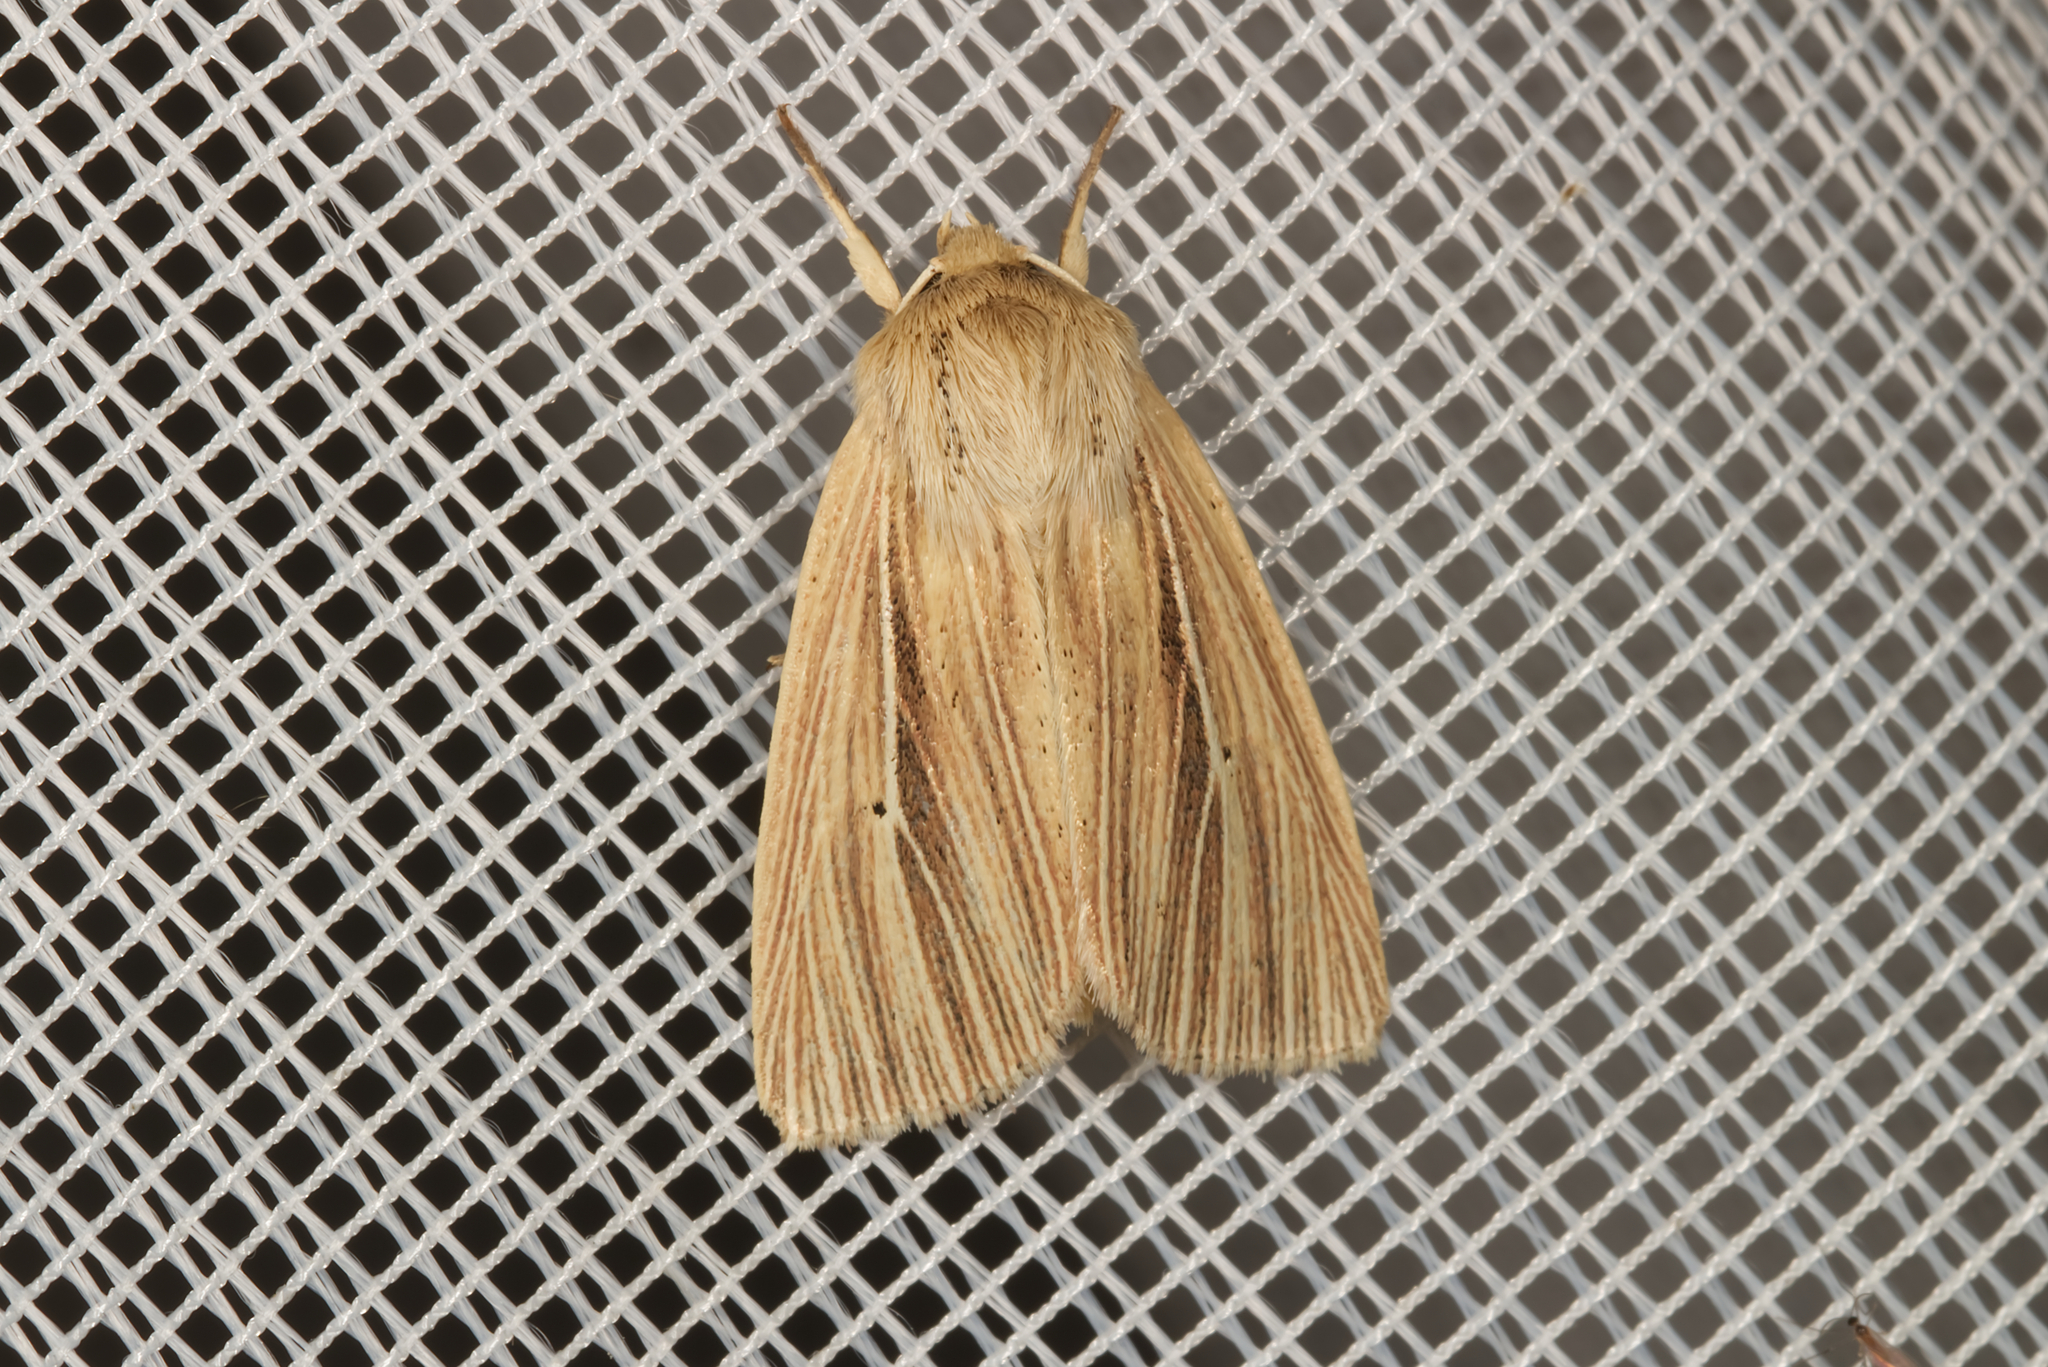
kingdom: Animalia
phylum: Arthropoda
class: Insecta
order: Lepidoptera
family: Noctuidae
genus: Mythimna
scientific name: Mythimna impura
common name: Smoky wainscot
